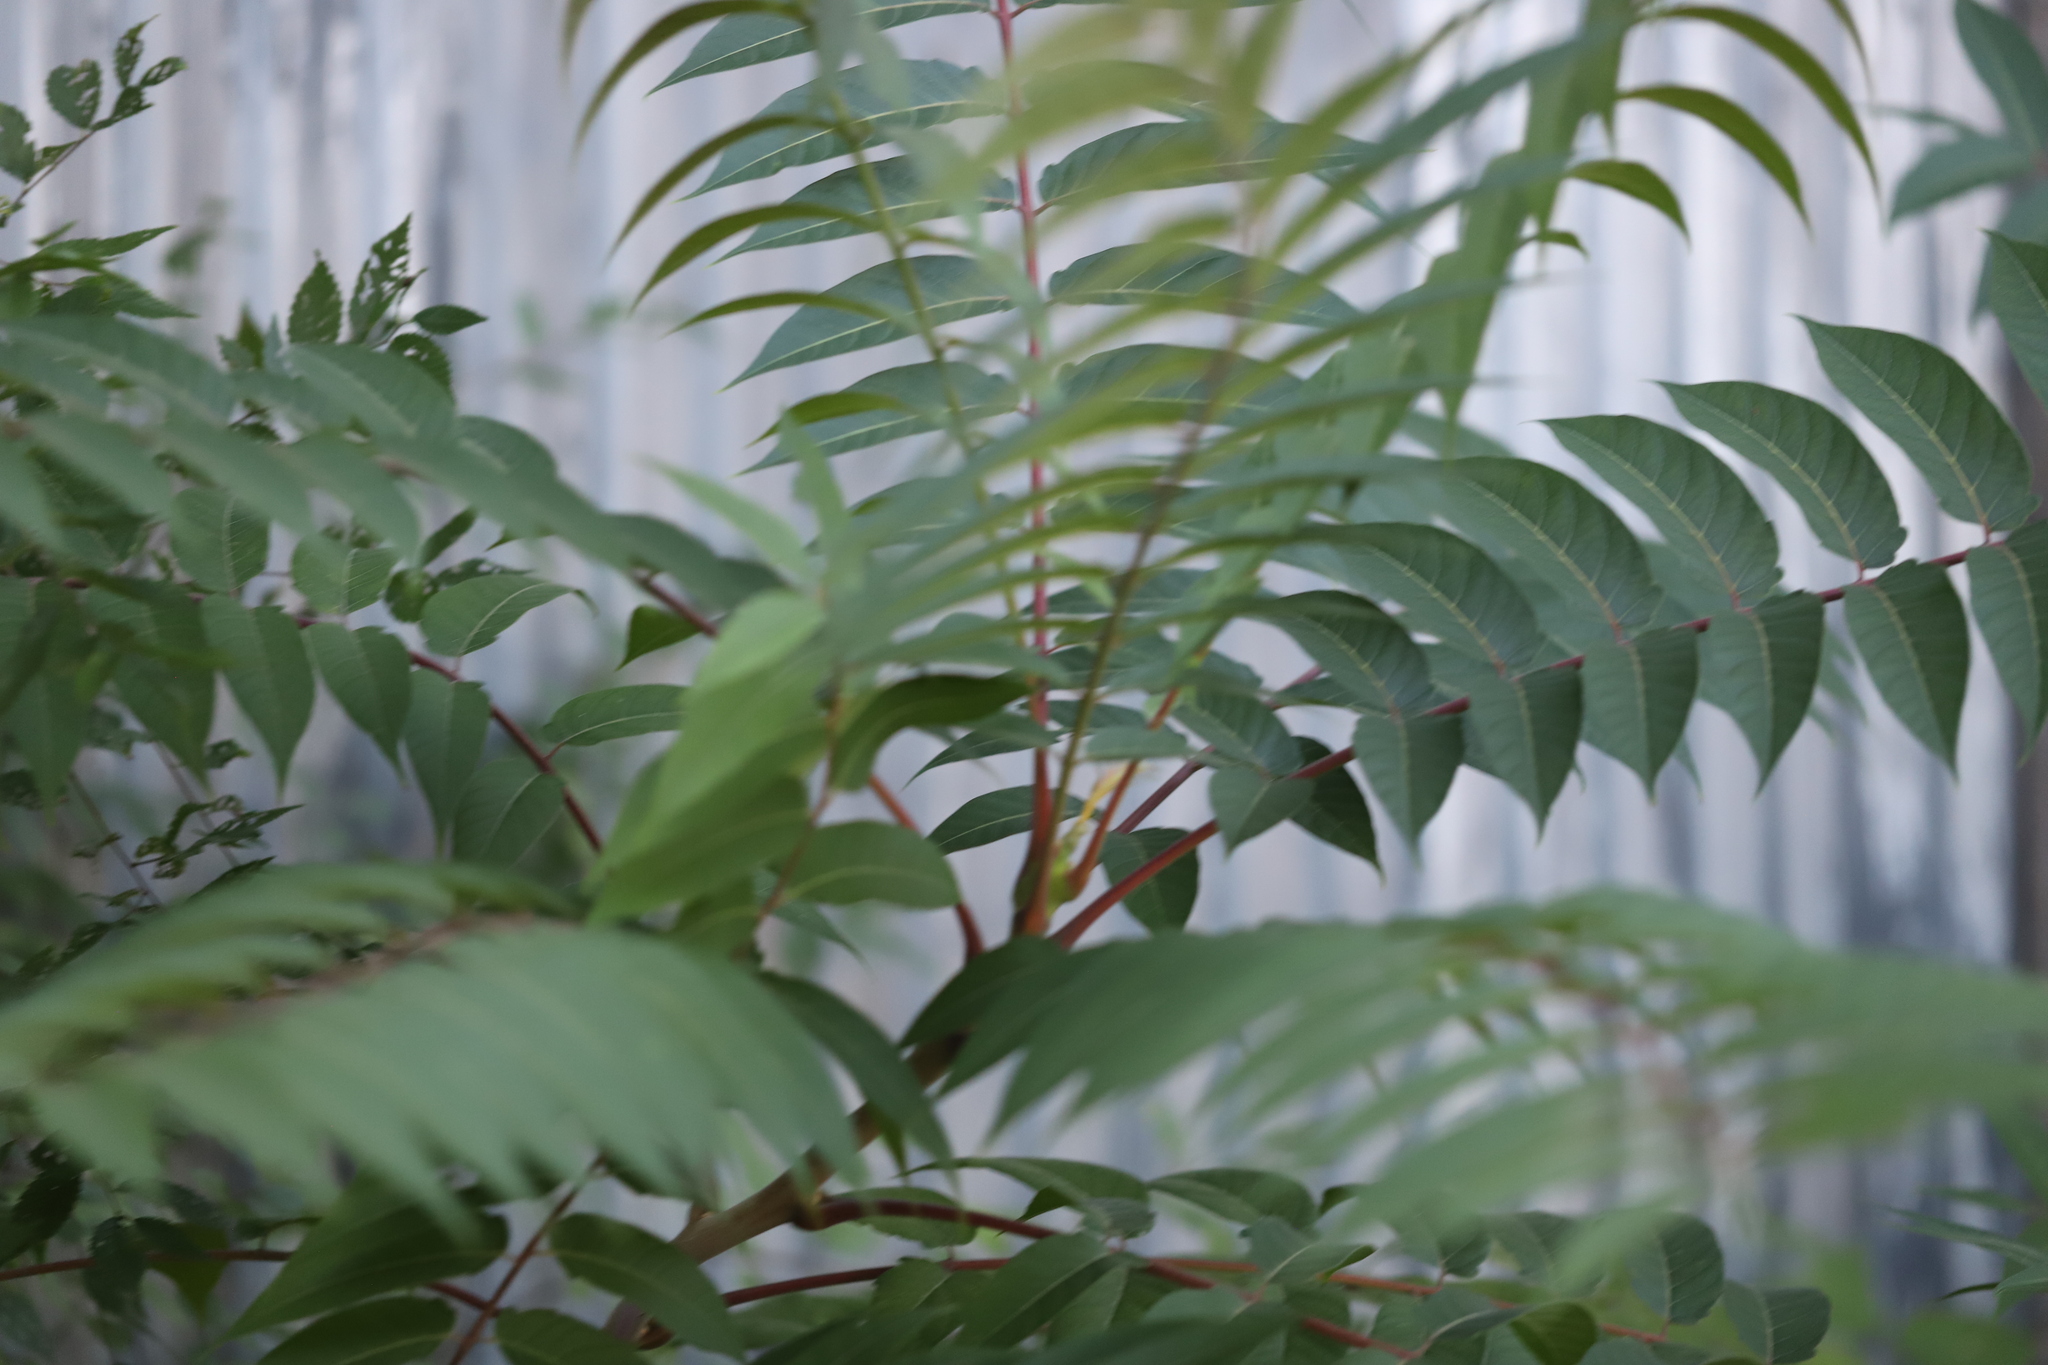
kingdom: Plantae
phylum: Tracheophyta
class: Magnoliopsida
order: Sapindales
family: Simaroubaceae
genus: Ailanthus
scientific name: Ailanthus altissima
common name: Tree-of-heaven
